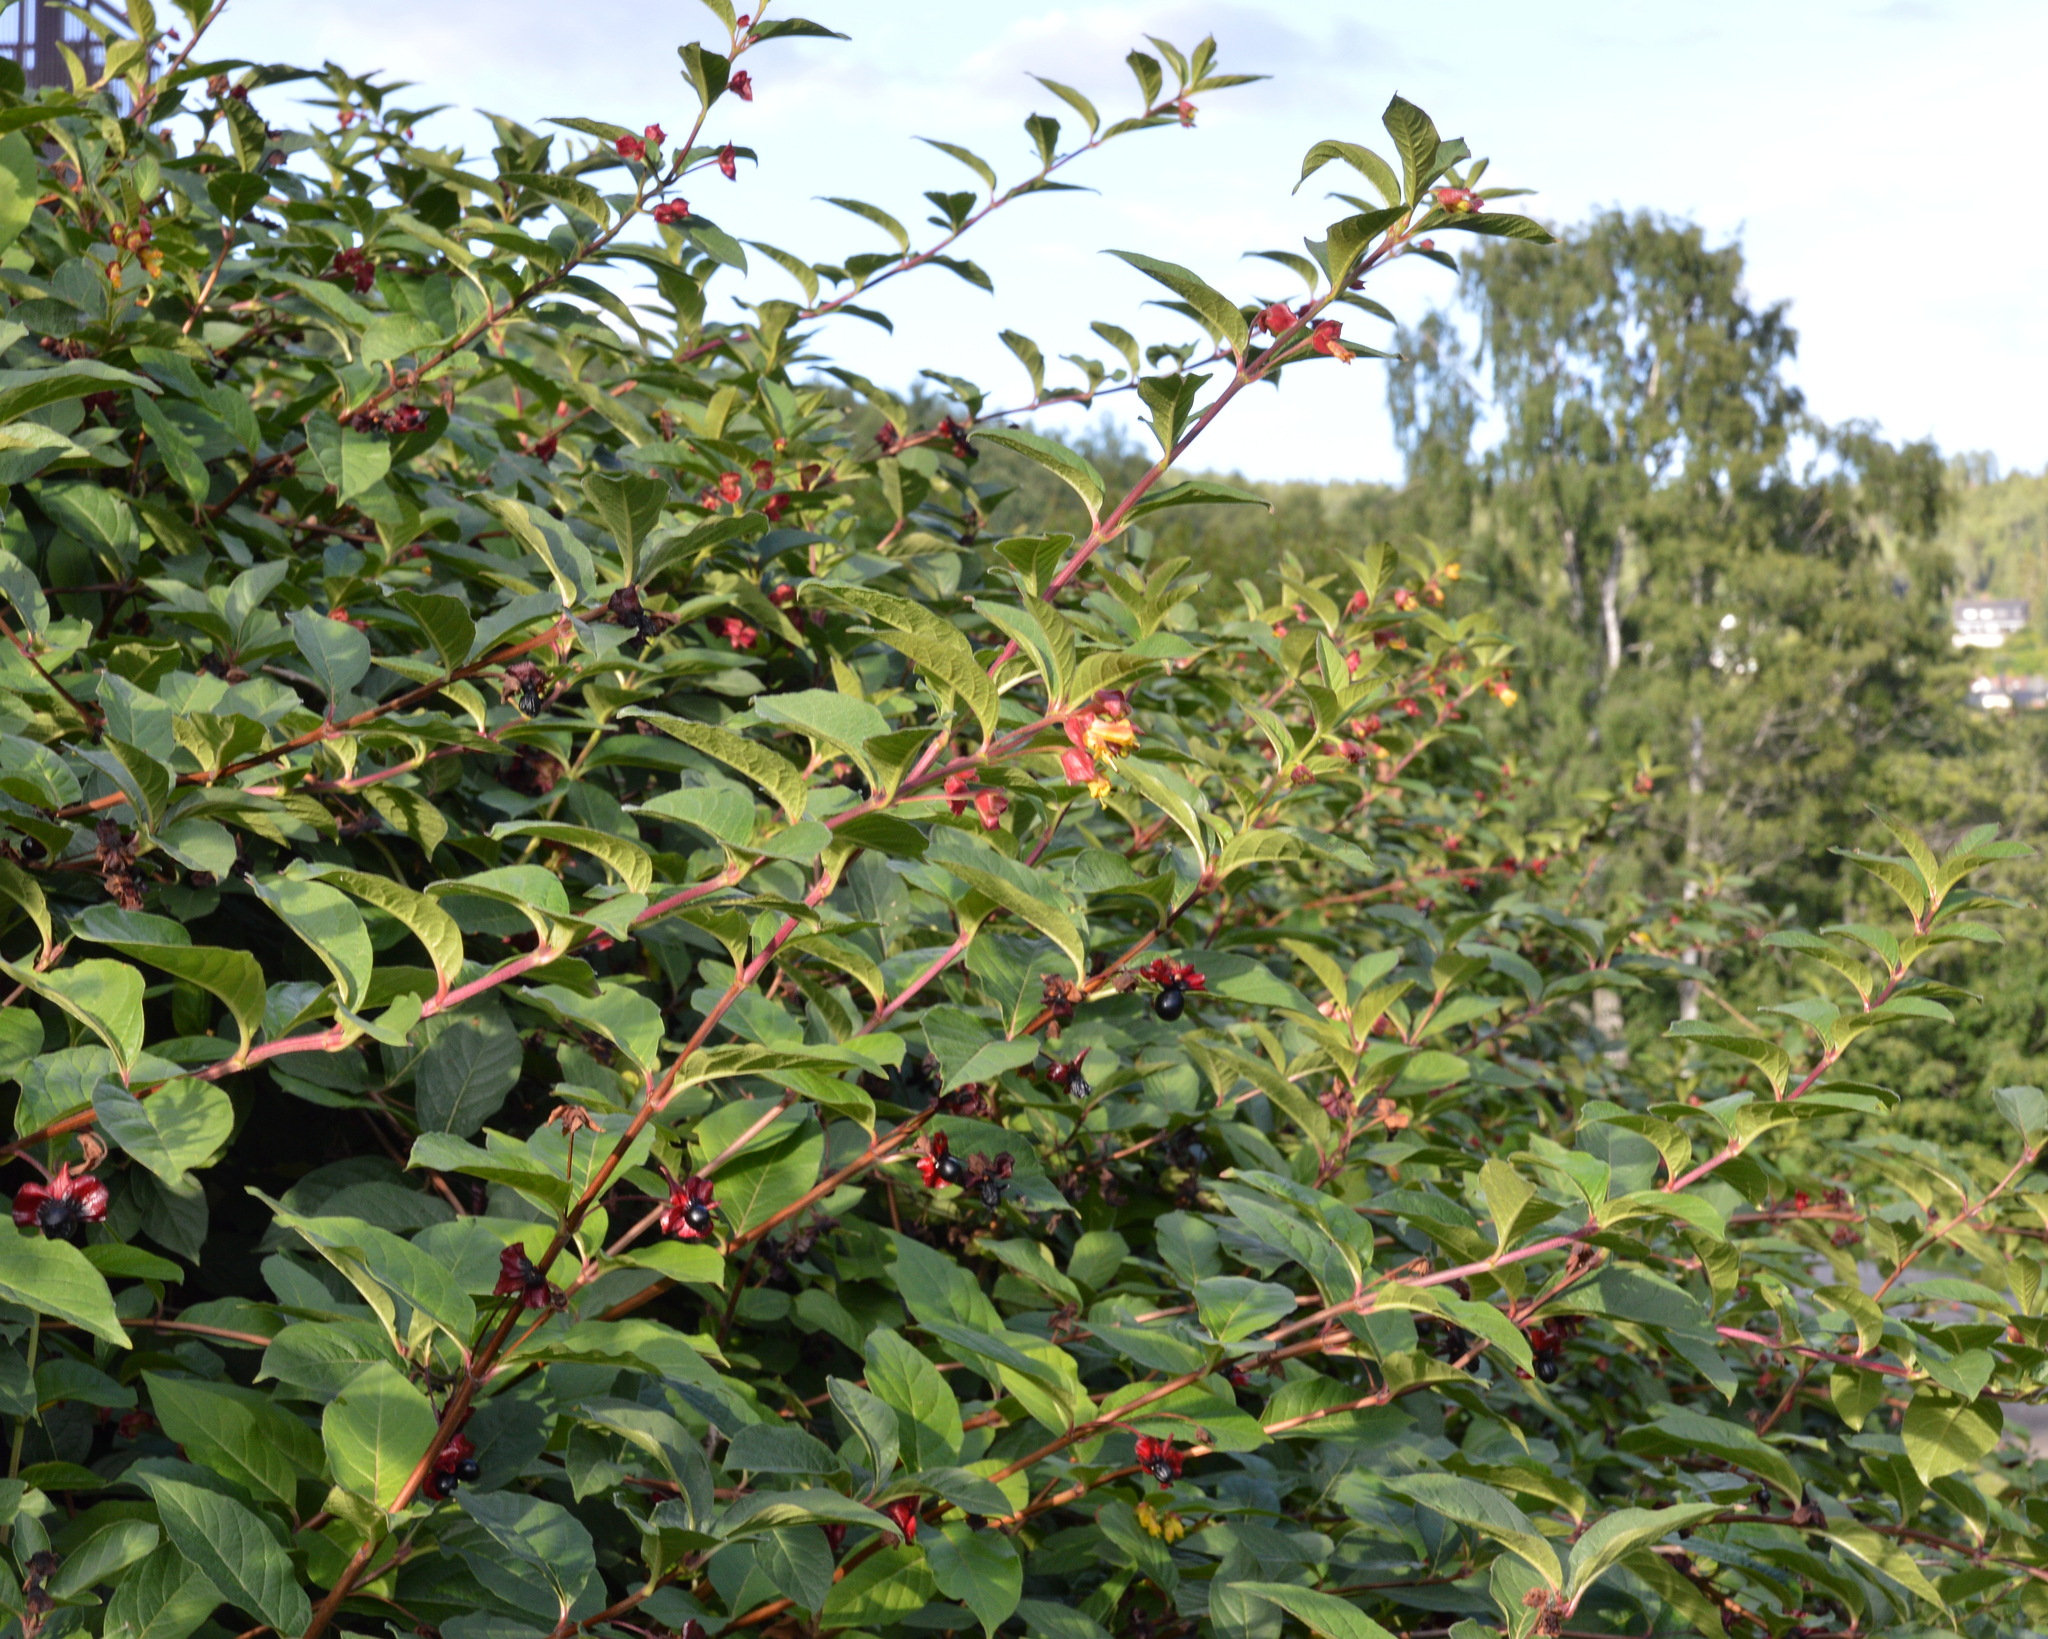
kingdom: Plantae
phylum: Tracheophyta
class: Magnoliopsida
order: Dipsacales
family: Caprifoliaceae
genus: Lonicera
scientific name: Lonicera involucrata
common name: Californian honeysuckle
